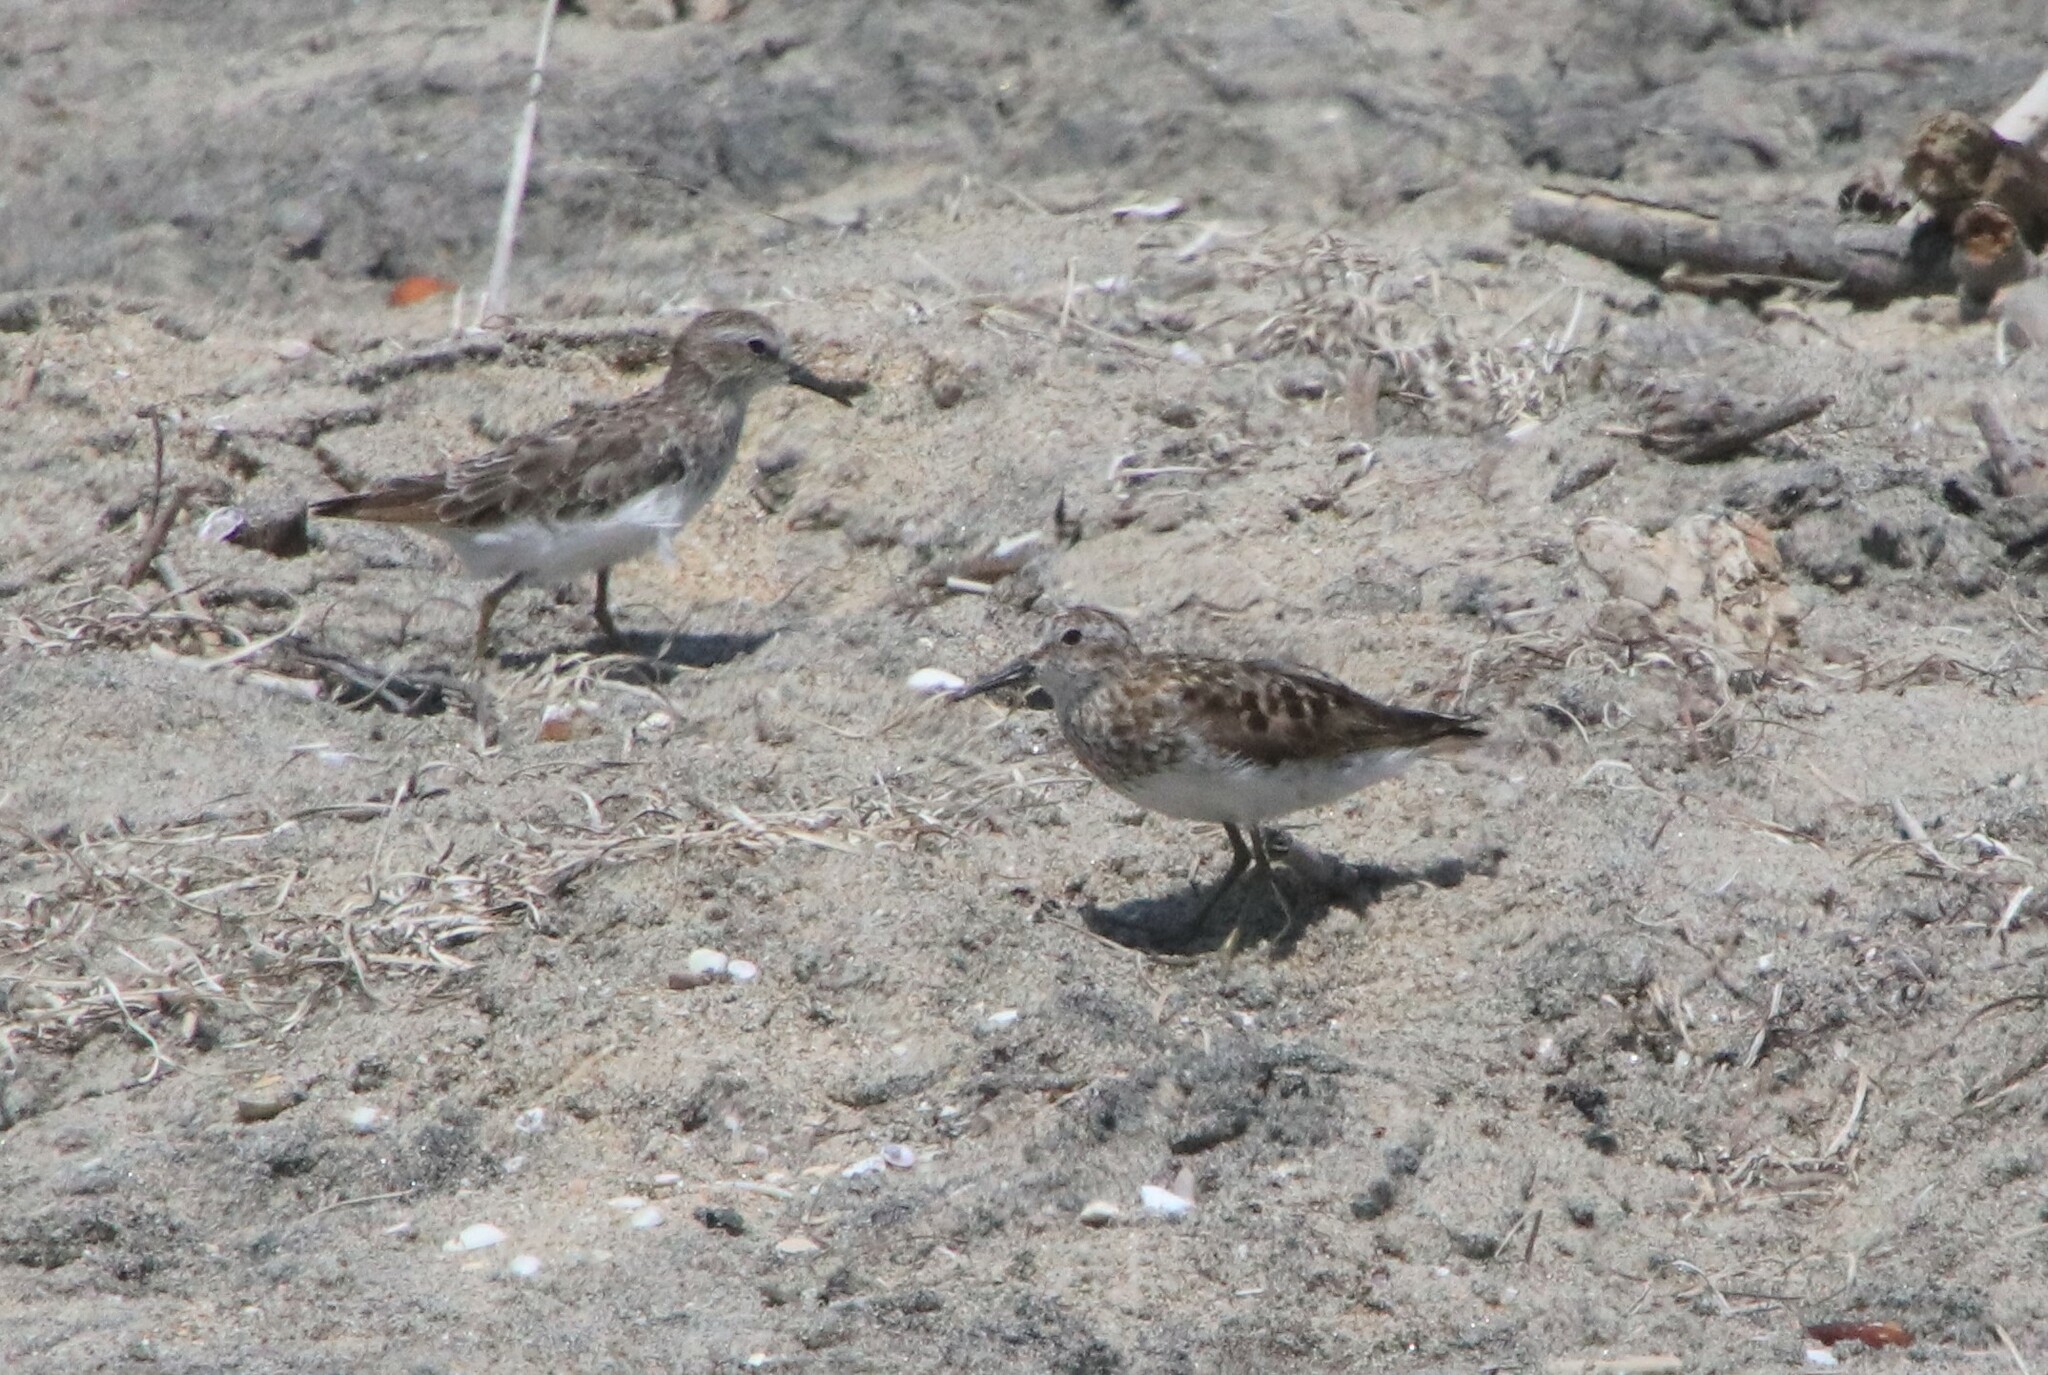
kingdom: Animalia
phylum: Chordata
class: Aves
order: Charadriiformes
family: Scolopacidae
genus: Calidris
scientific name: Calidris minutilla
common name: Least sandpiper
